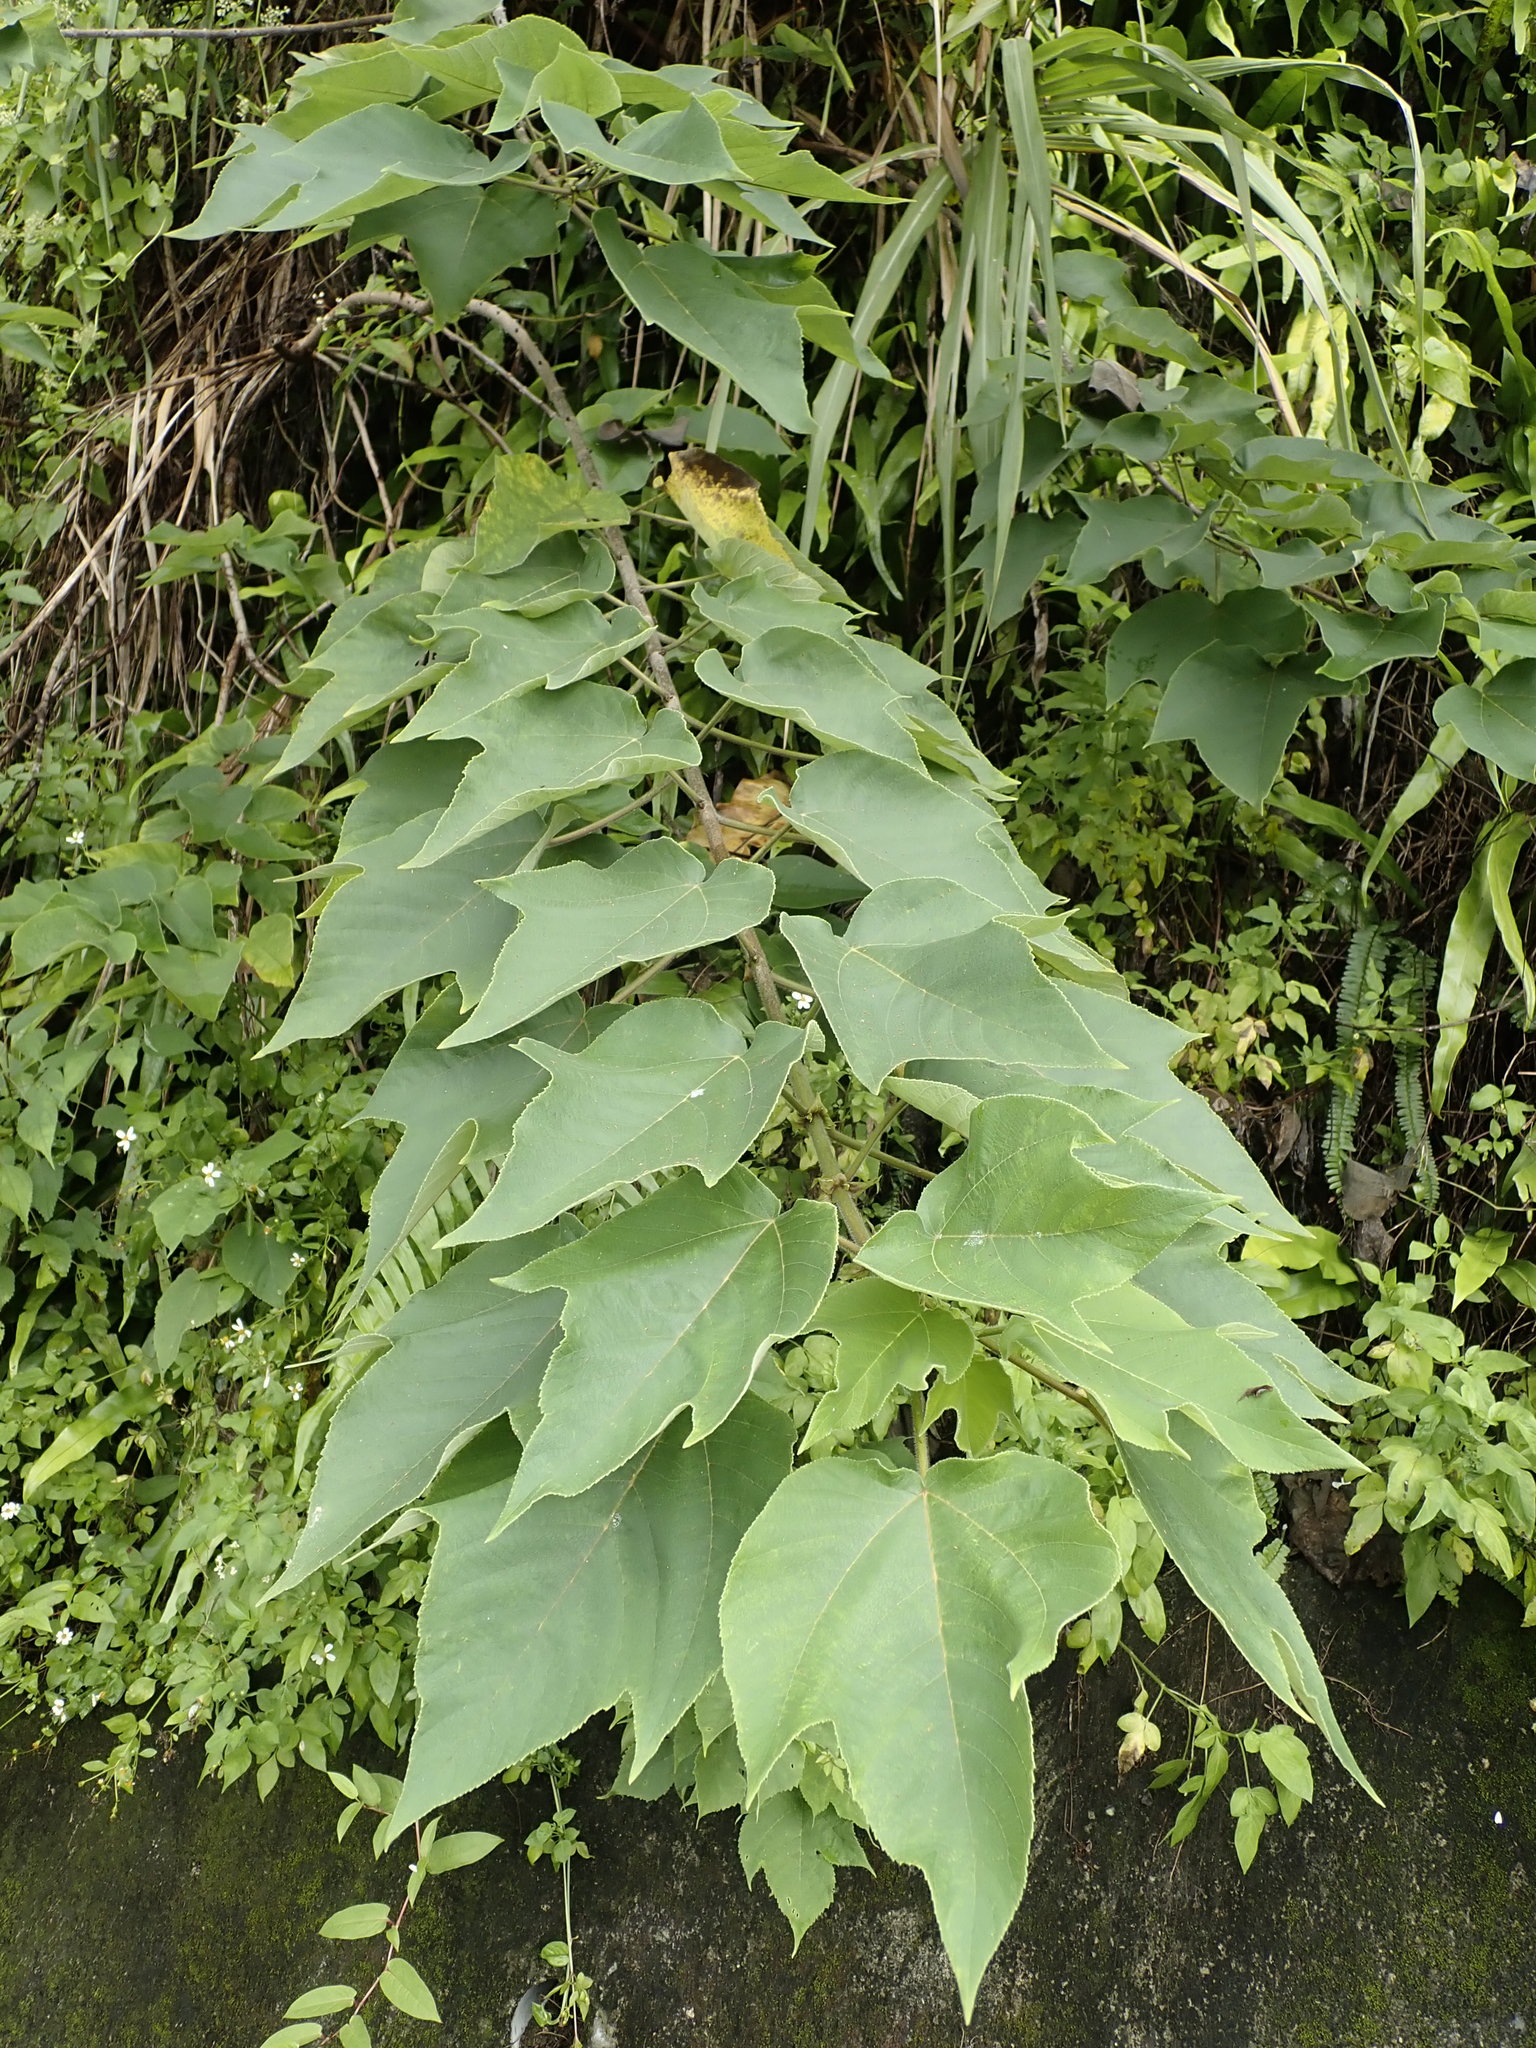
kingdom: Plantae
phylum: Tracheophyta
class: Magnoliopsida
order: Rosales
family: Moraceae
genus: Broussonetia
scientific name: Broussonetia papyrifera
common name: Paper mulberry
